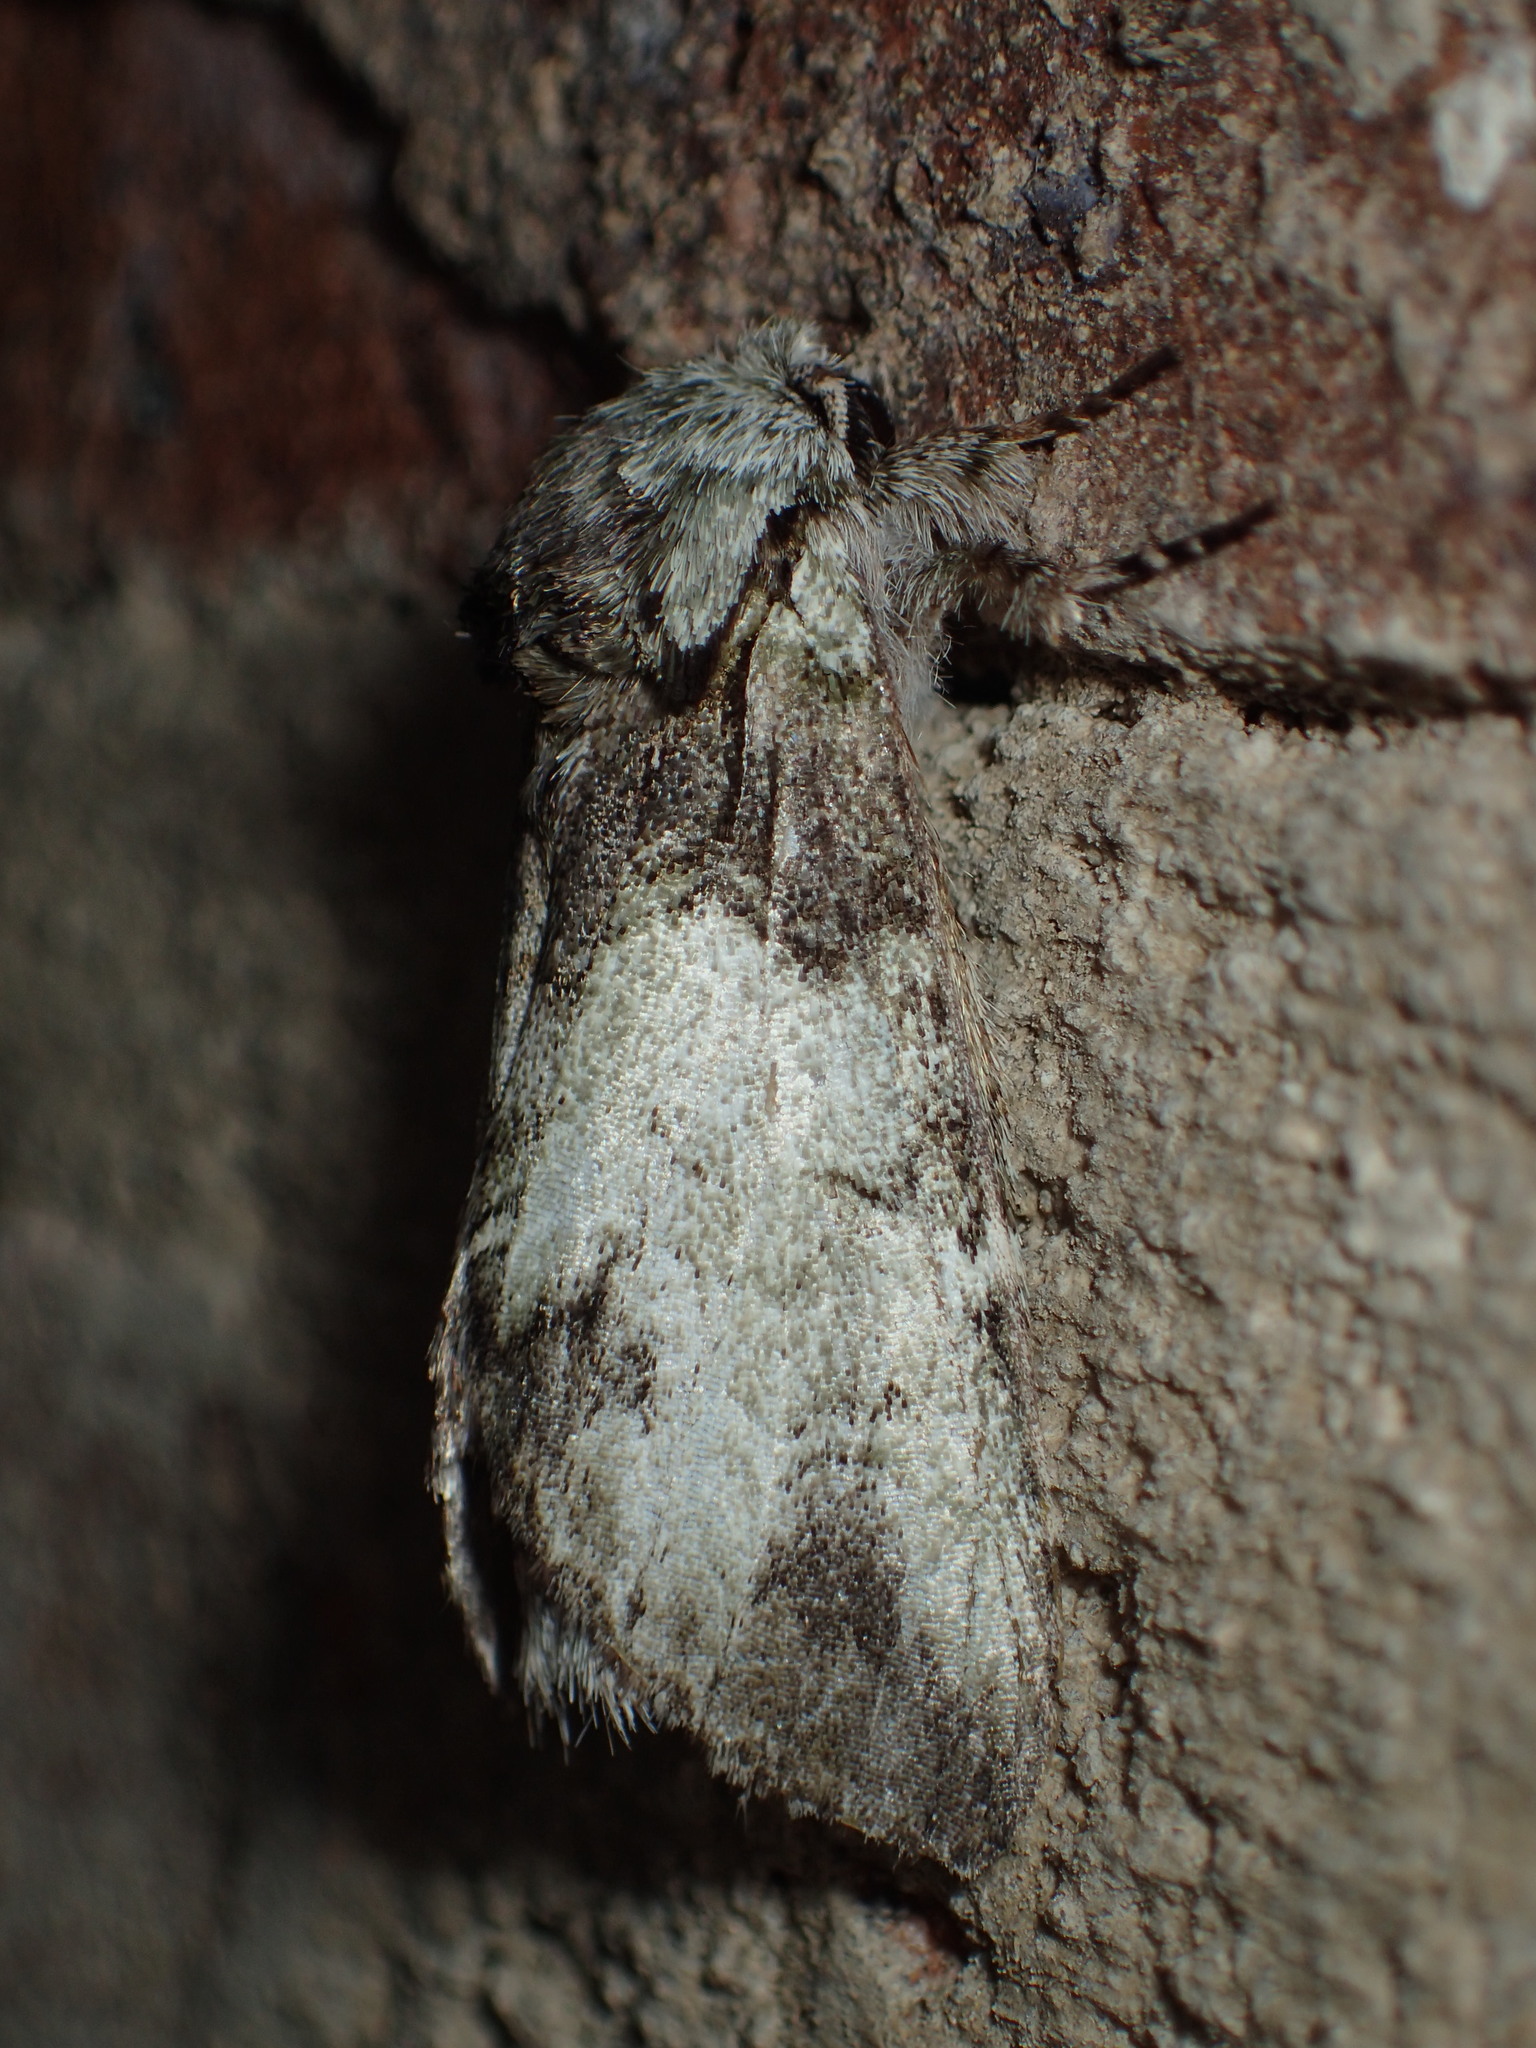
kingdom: Animalia
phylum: Arthropoda
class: Insecta
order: Lepidoptera
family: Notodontidae
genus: Macrurocampa
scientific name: Macrurocampa marthesia
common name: Mottled prominent
